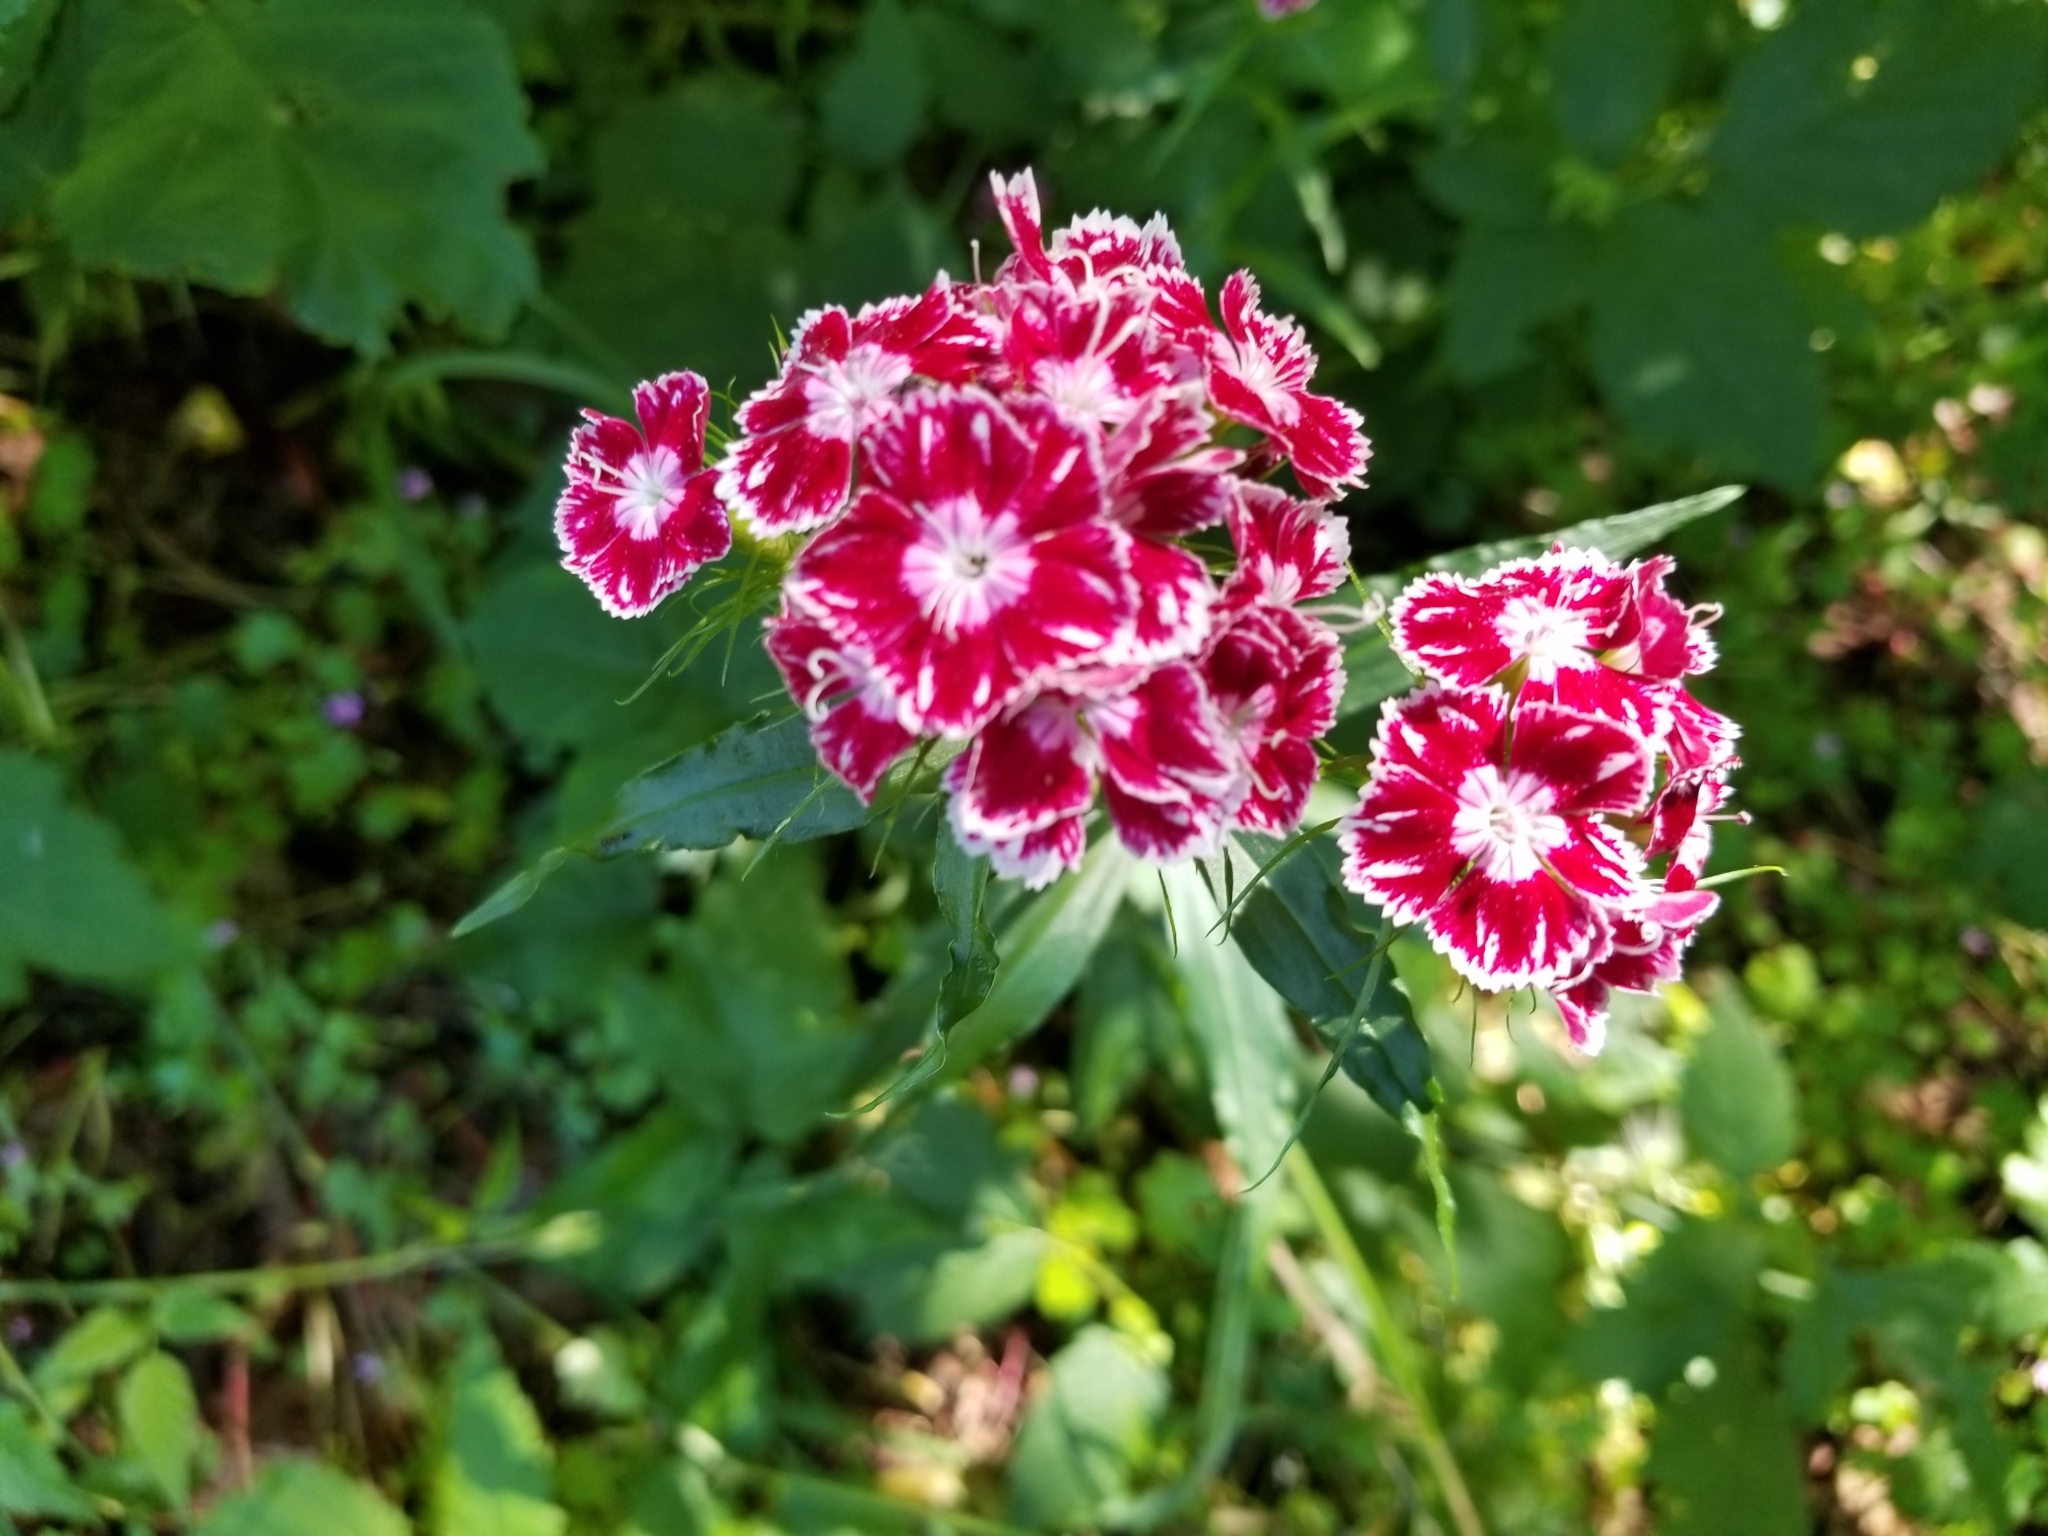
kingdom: Plantae
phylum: Tracheophyta
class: Magnoliopsida
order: Caryophyllales
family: Caryophyllaceae
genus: Dianthus
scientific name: Dianthus barbatus
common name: Sweet-william
